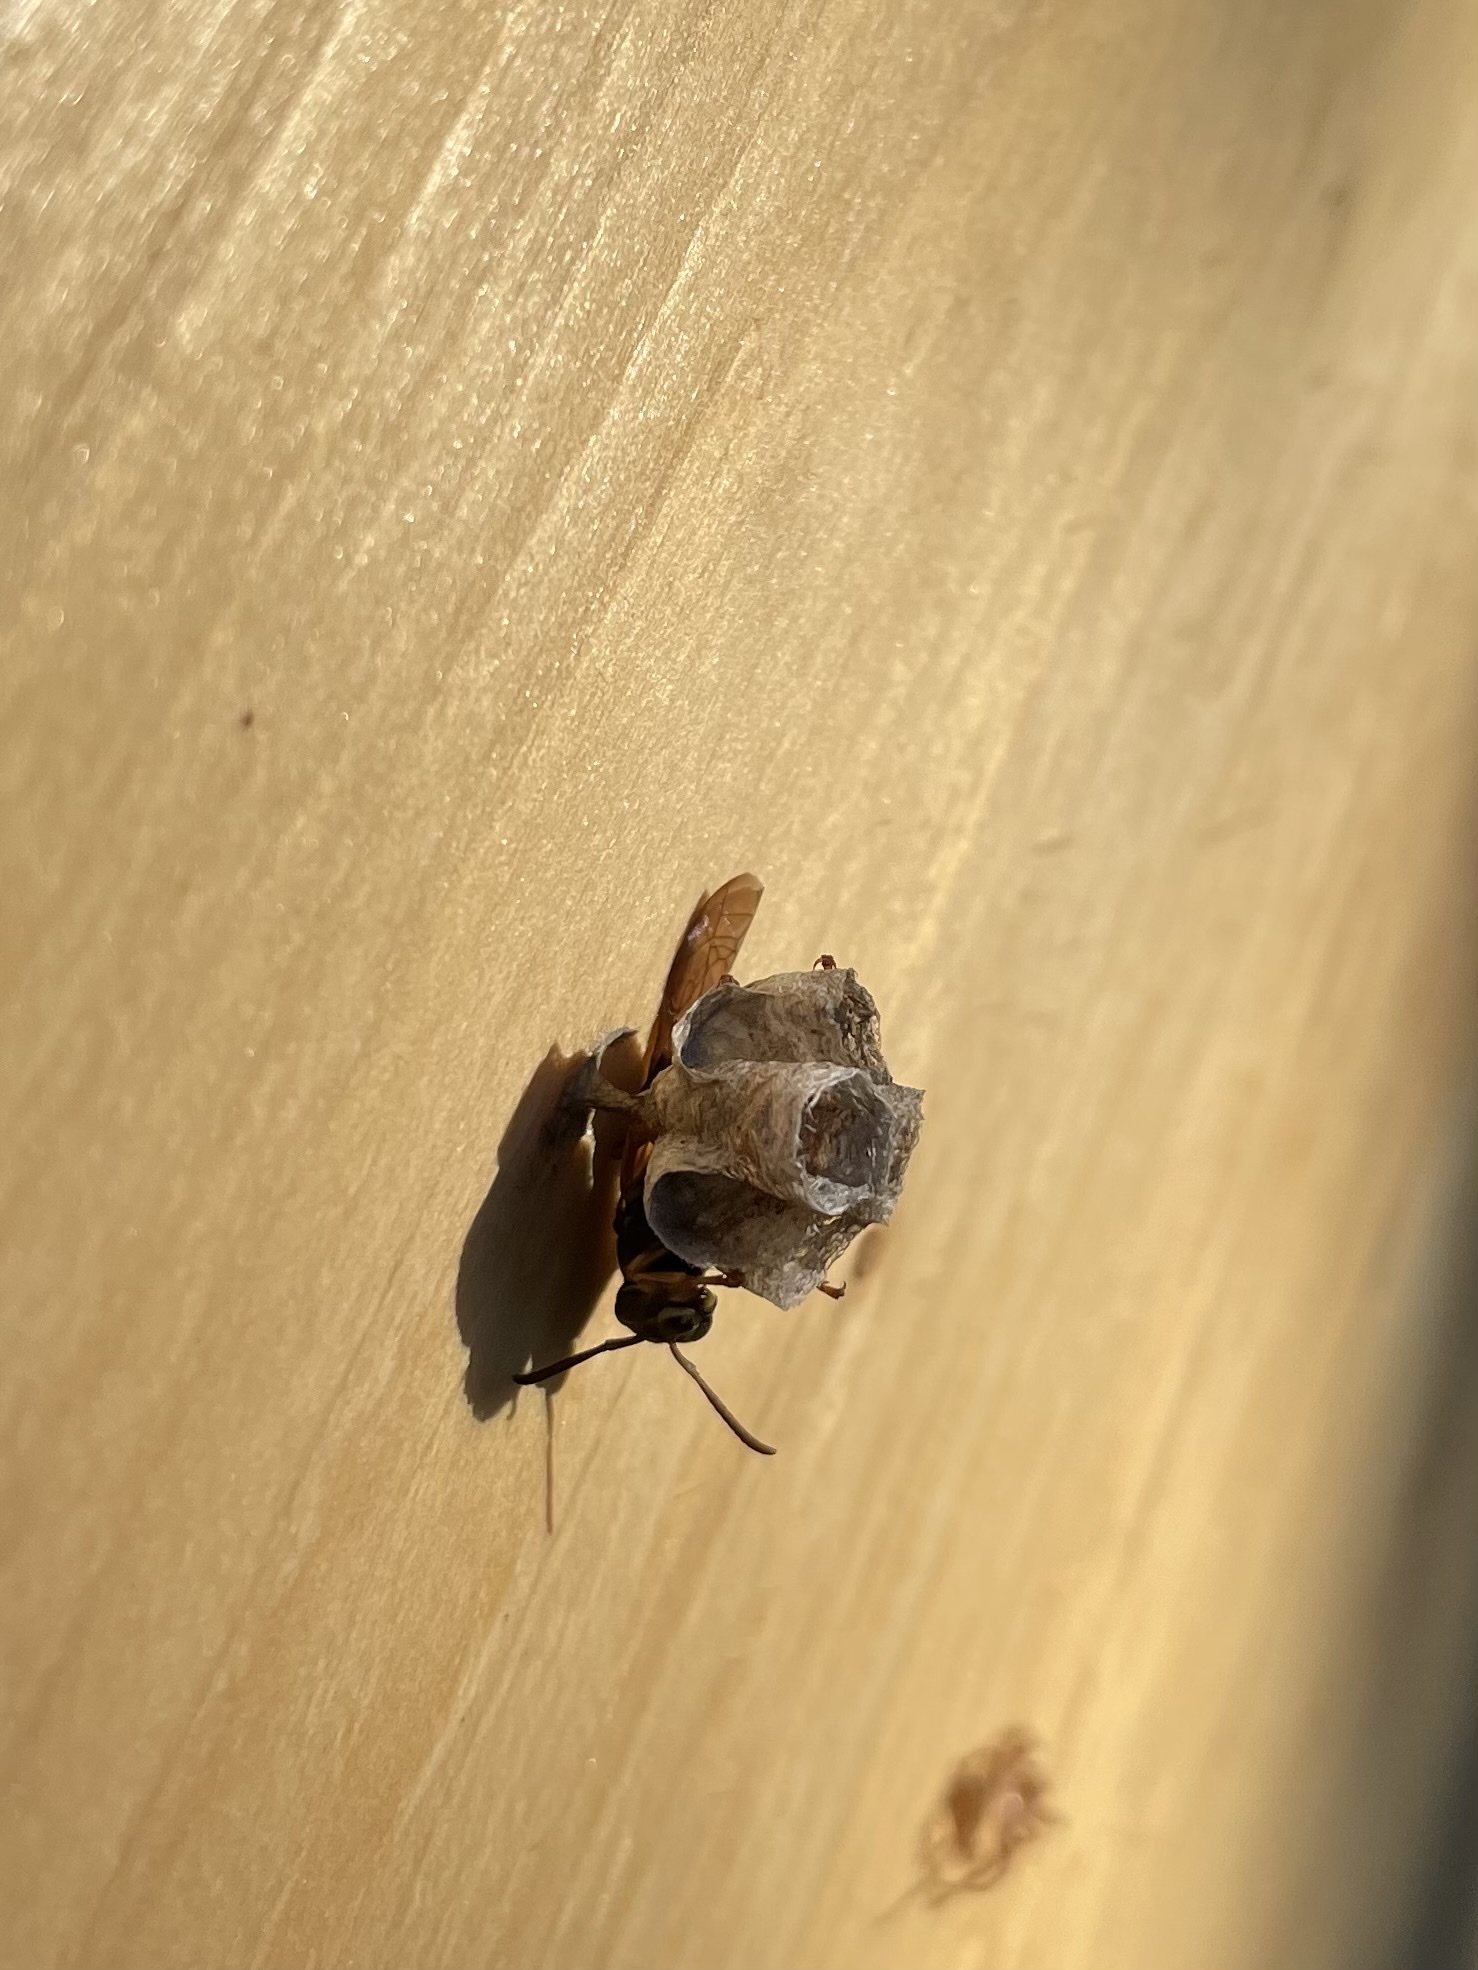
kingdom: Animalia
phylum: Arthropoda
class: Insecta
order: Hymenoptera
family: Eumenidae
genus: Polistes
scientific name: Polistes fuscatus
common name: Dark paper wasp
